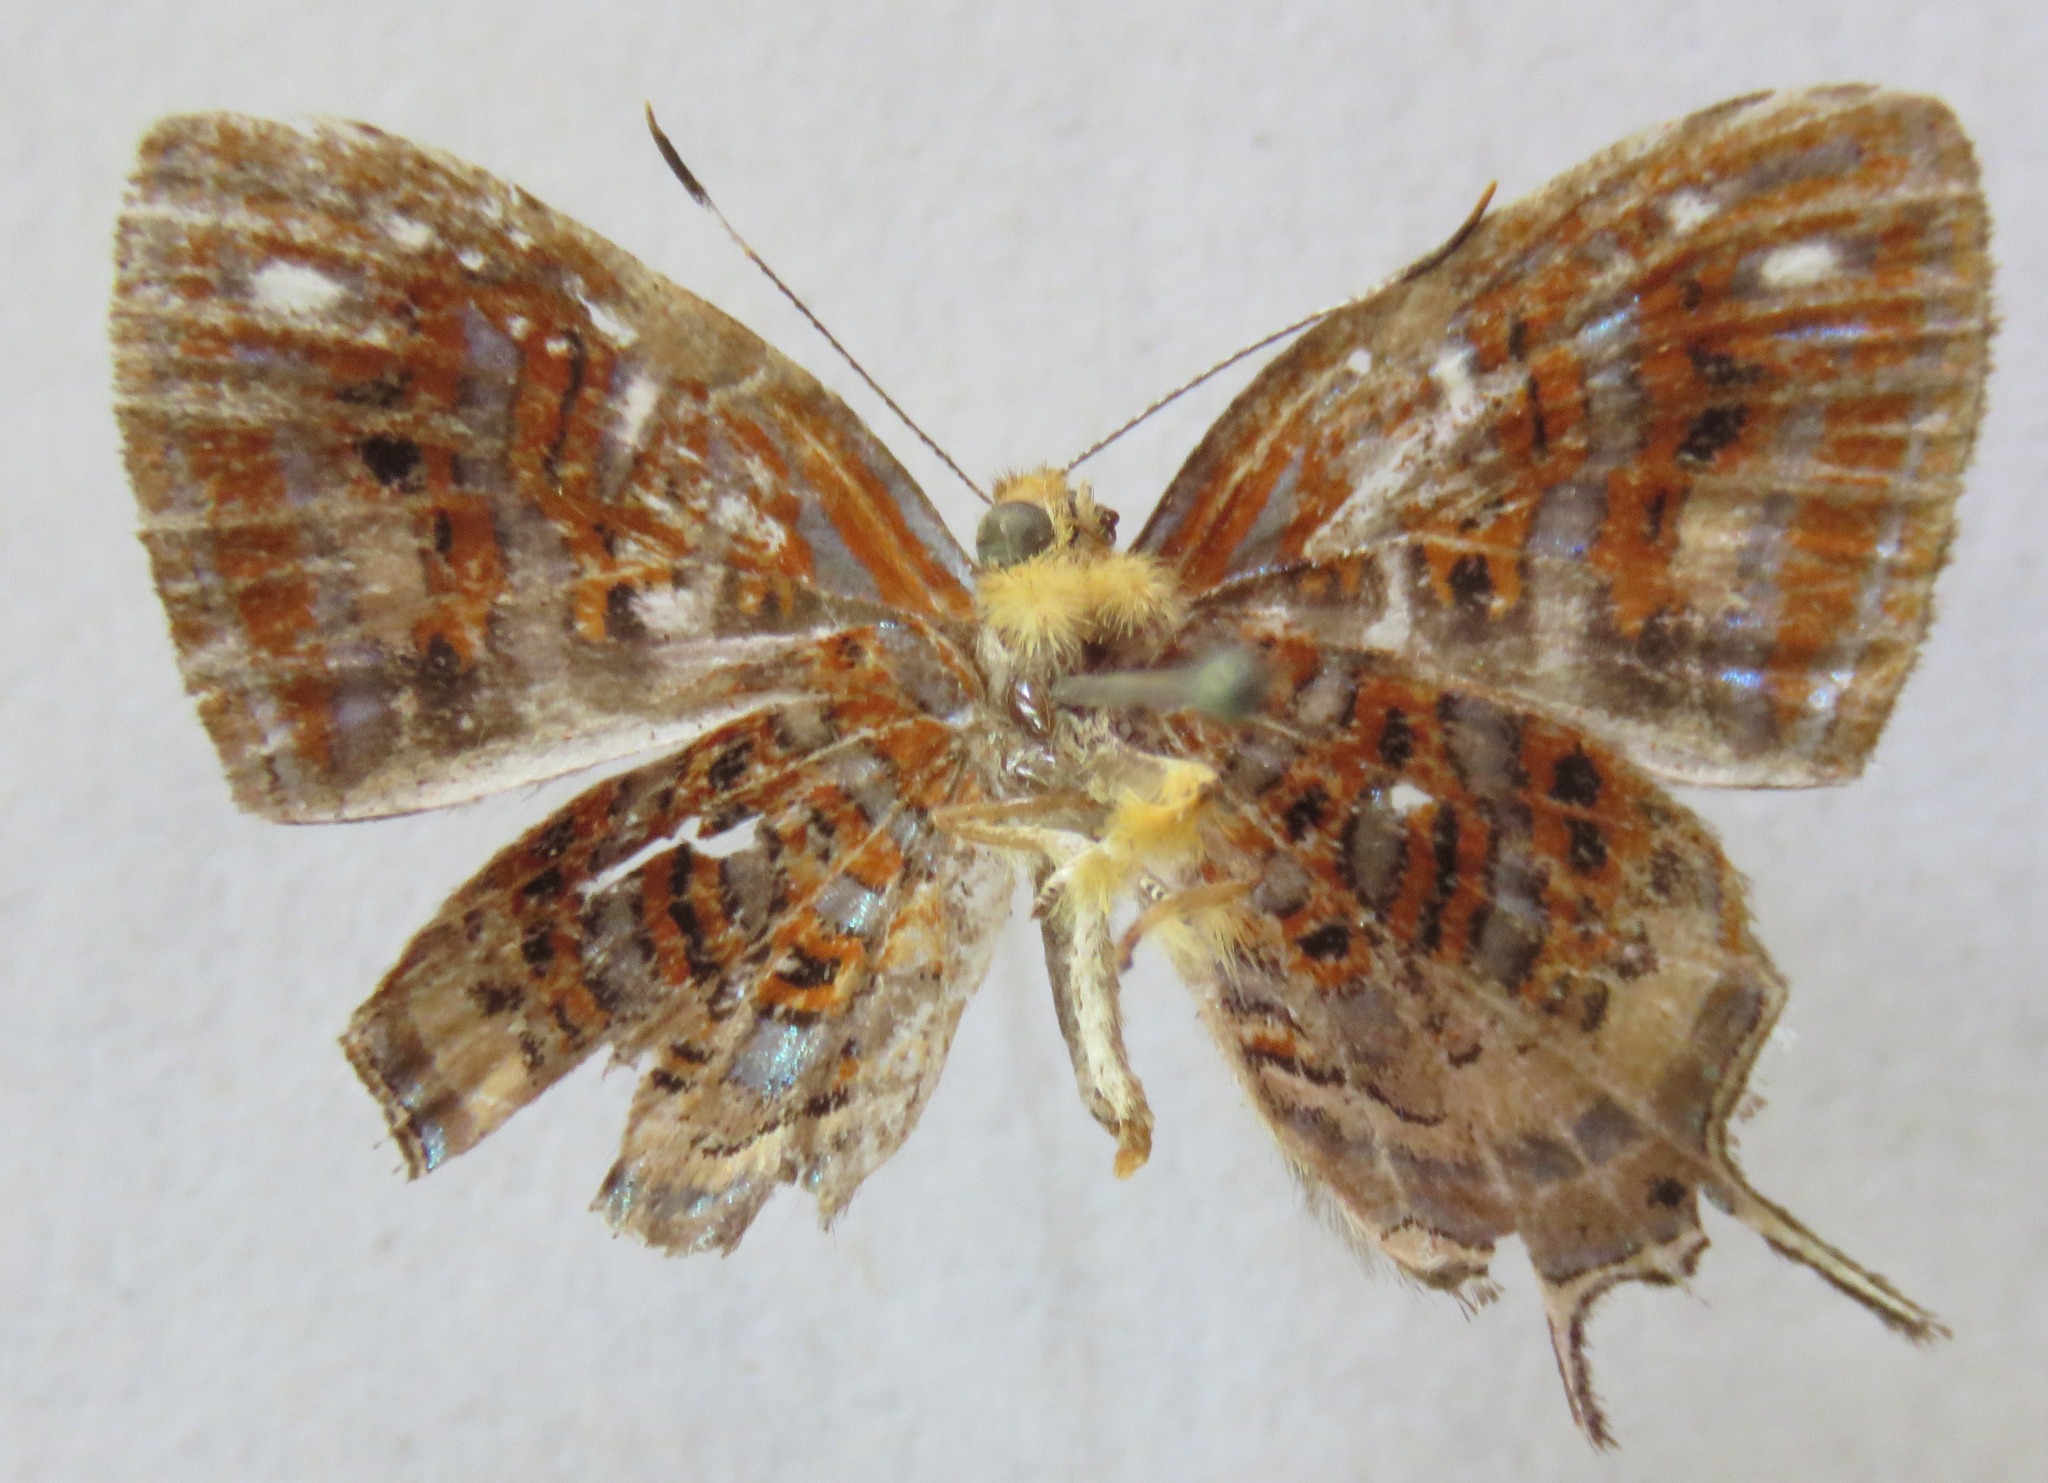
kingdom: Animalia
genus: Charis
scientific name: Charis chrysus
